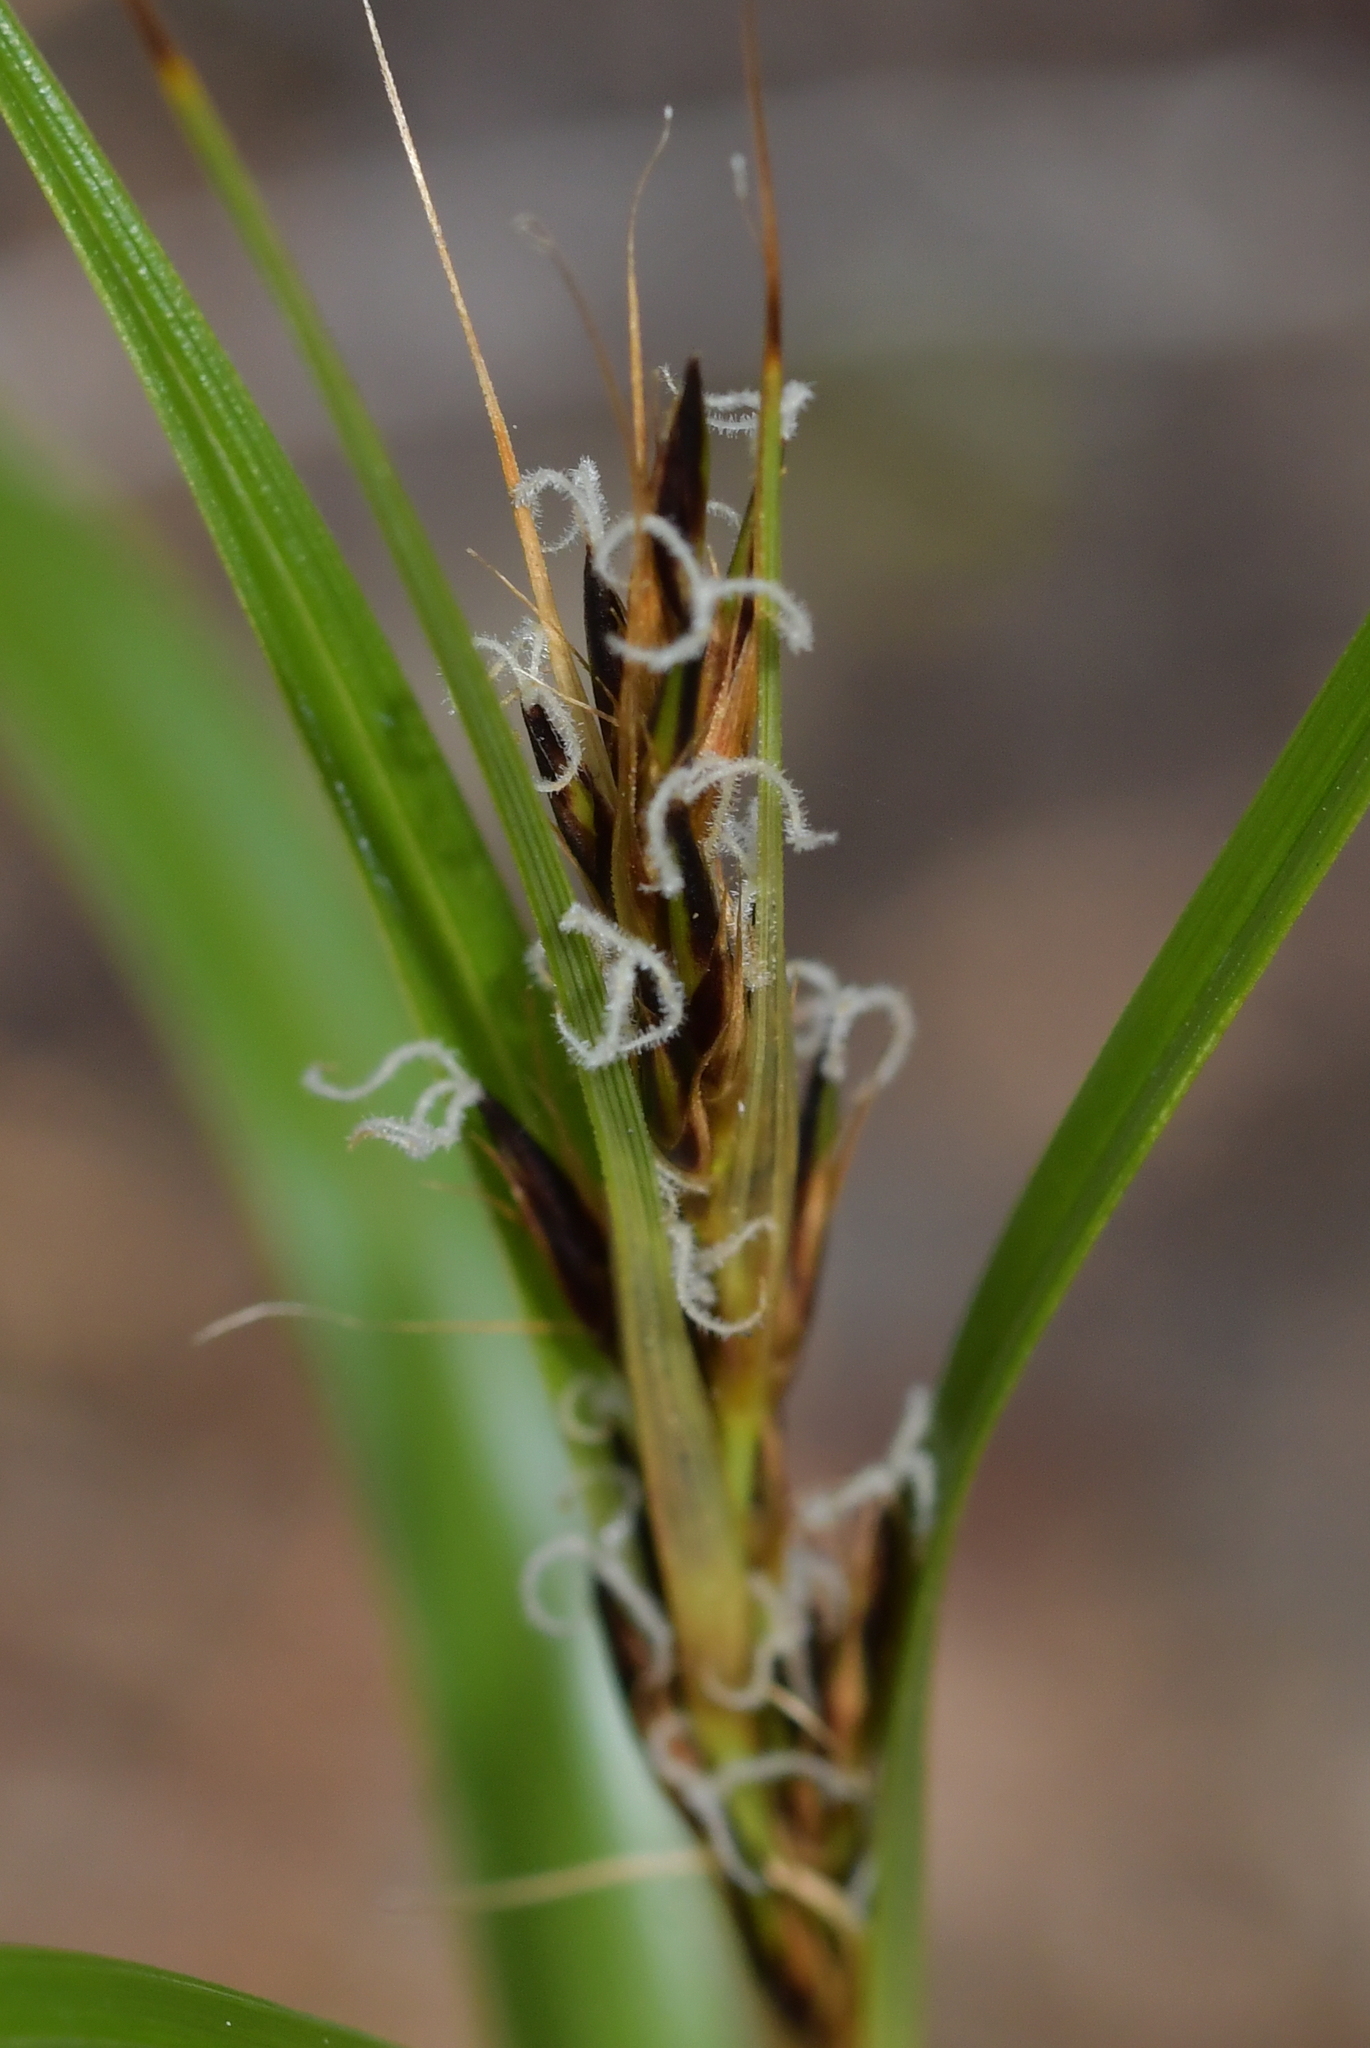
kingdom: Plantae
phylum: Tracheophyta
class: Liliopsida
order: Poales
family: Cyperaceae
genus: Morelotia
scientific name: Morelotia affinis
